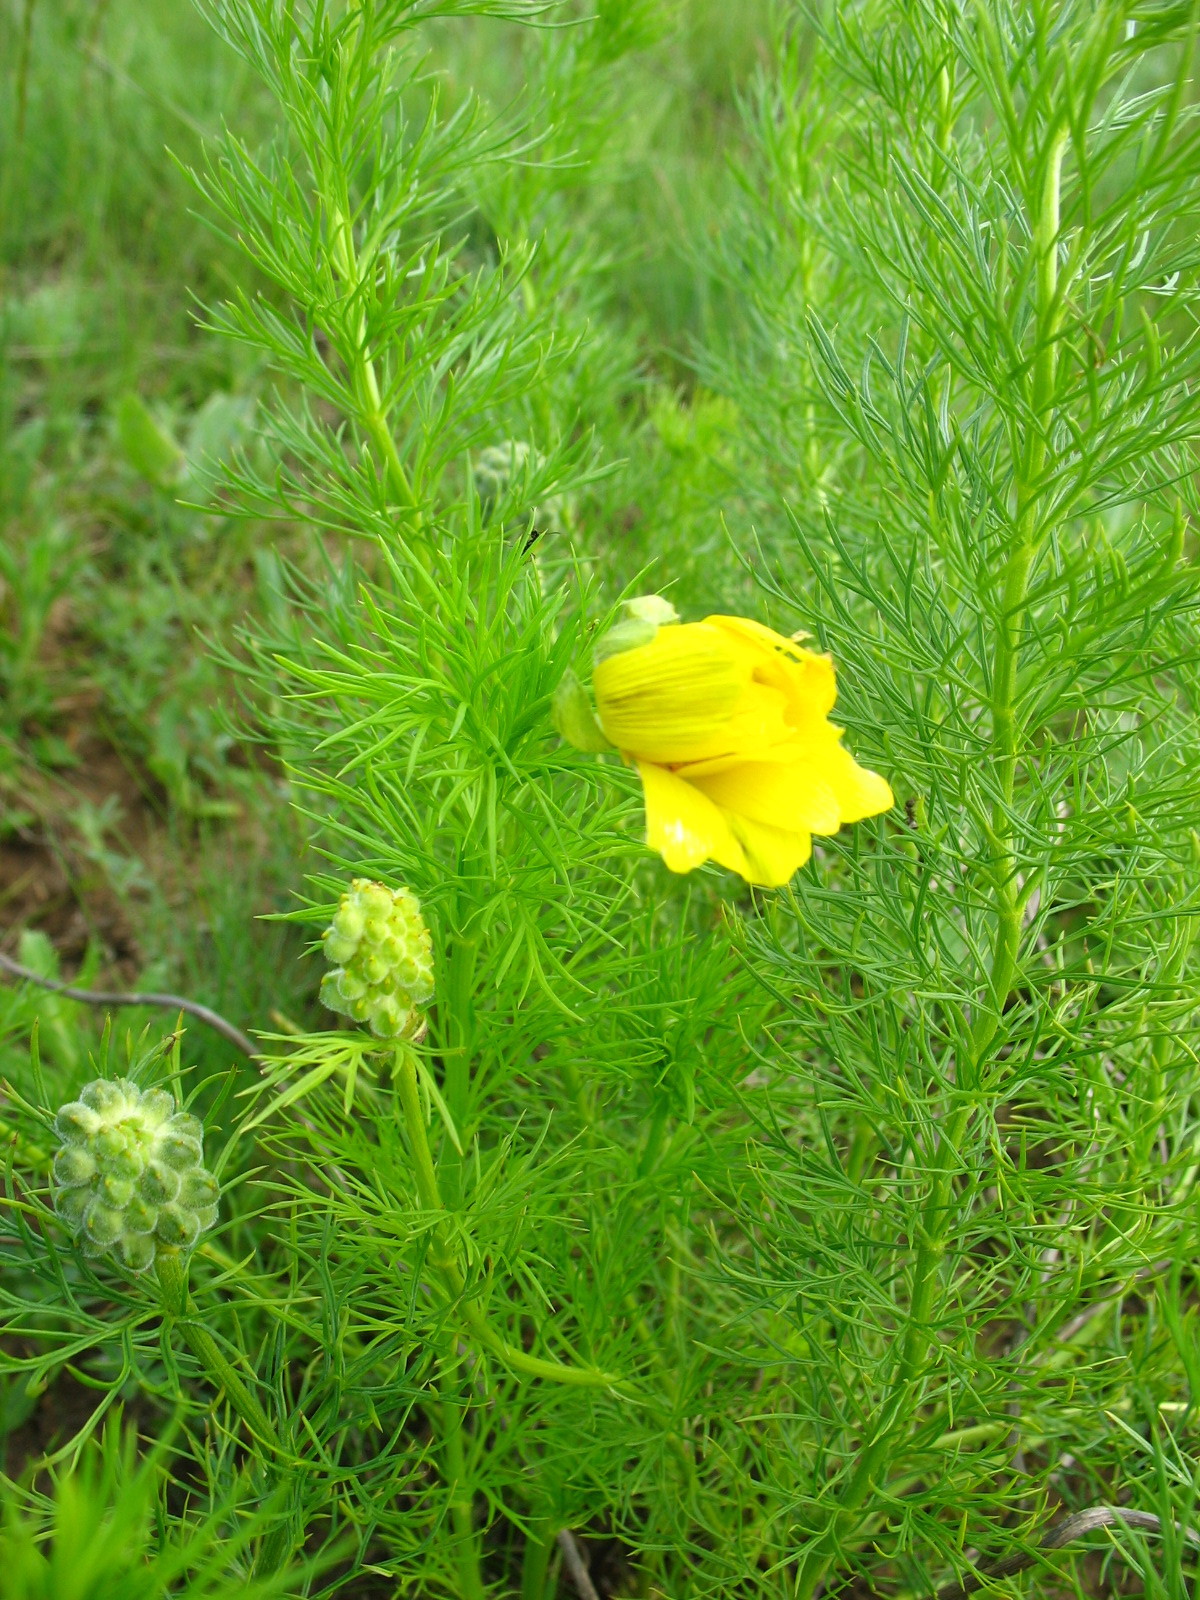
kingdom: Plantae
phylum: Tracheophyta
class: Magnoliopsida
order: Ranunculales
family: Ranunculaceae
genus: Adonis
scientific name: Adonis vernalis
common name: Yellow pheasants-eye
